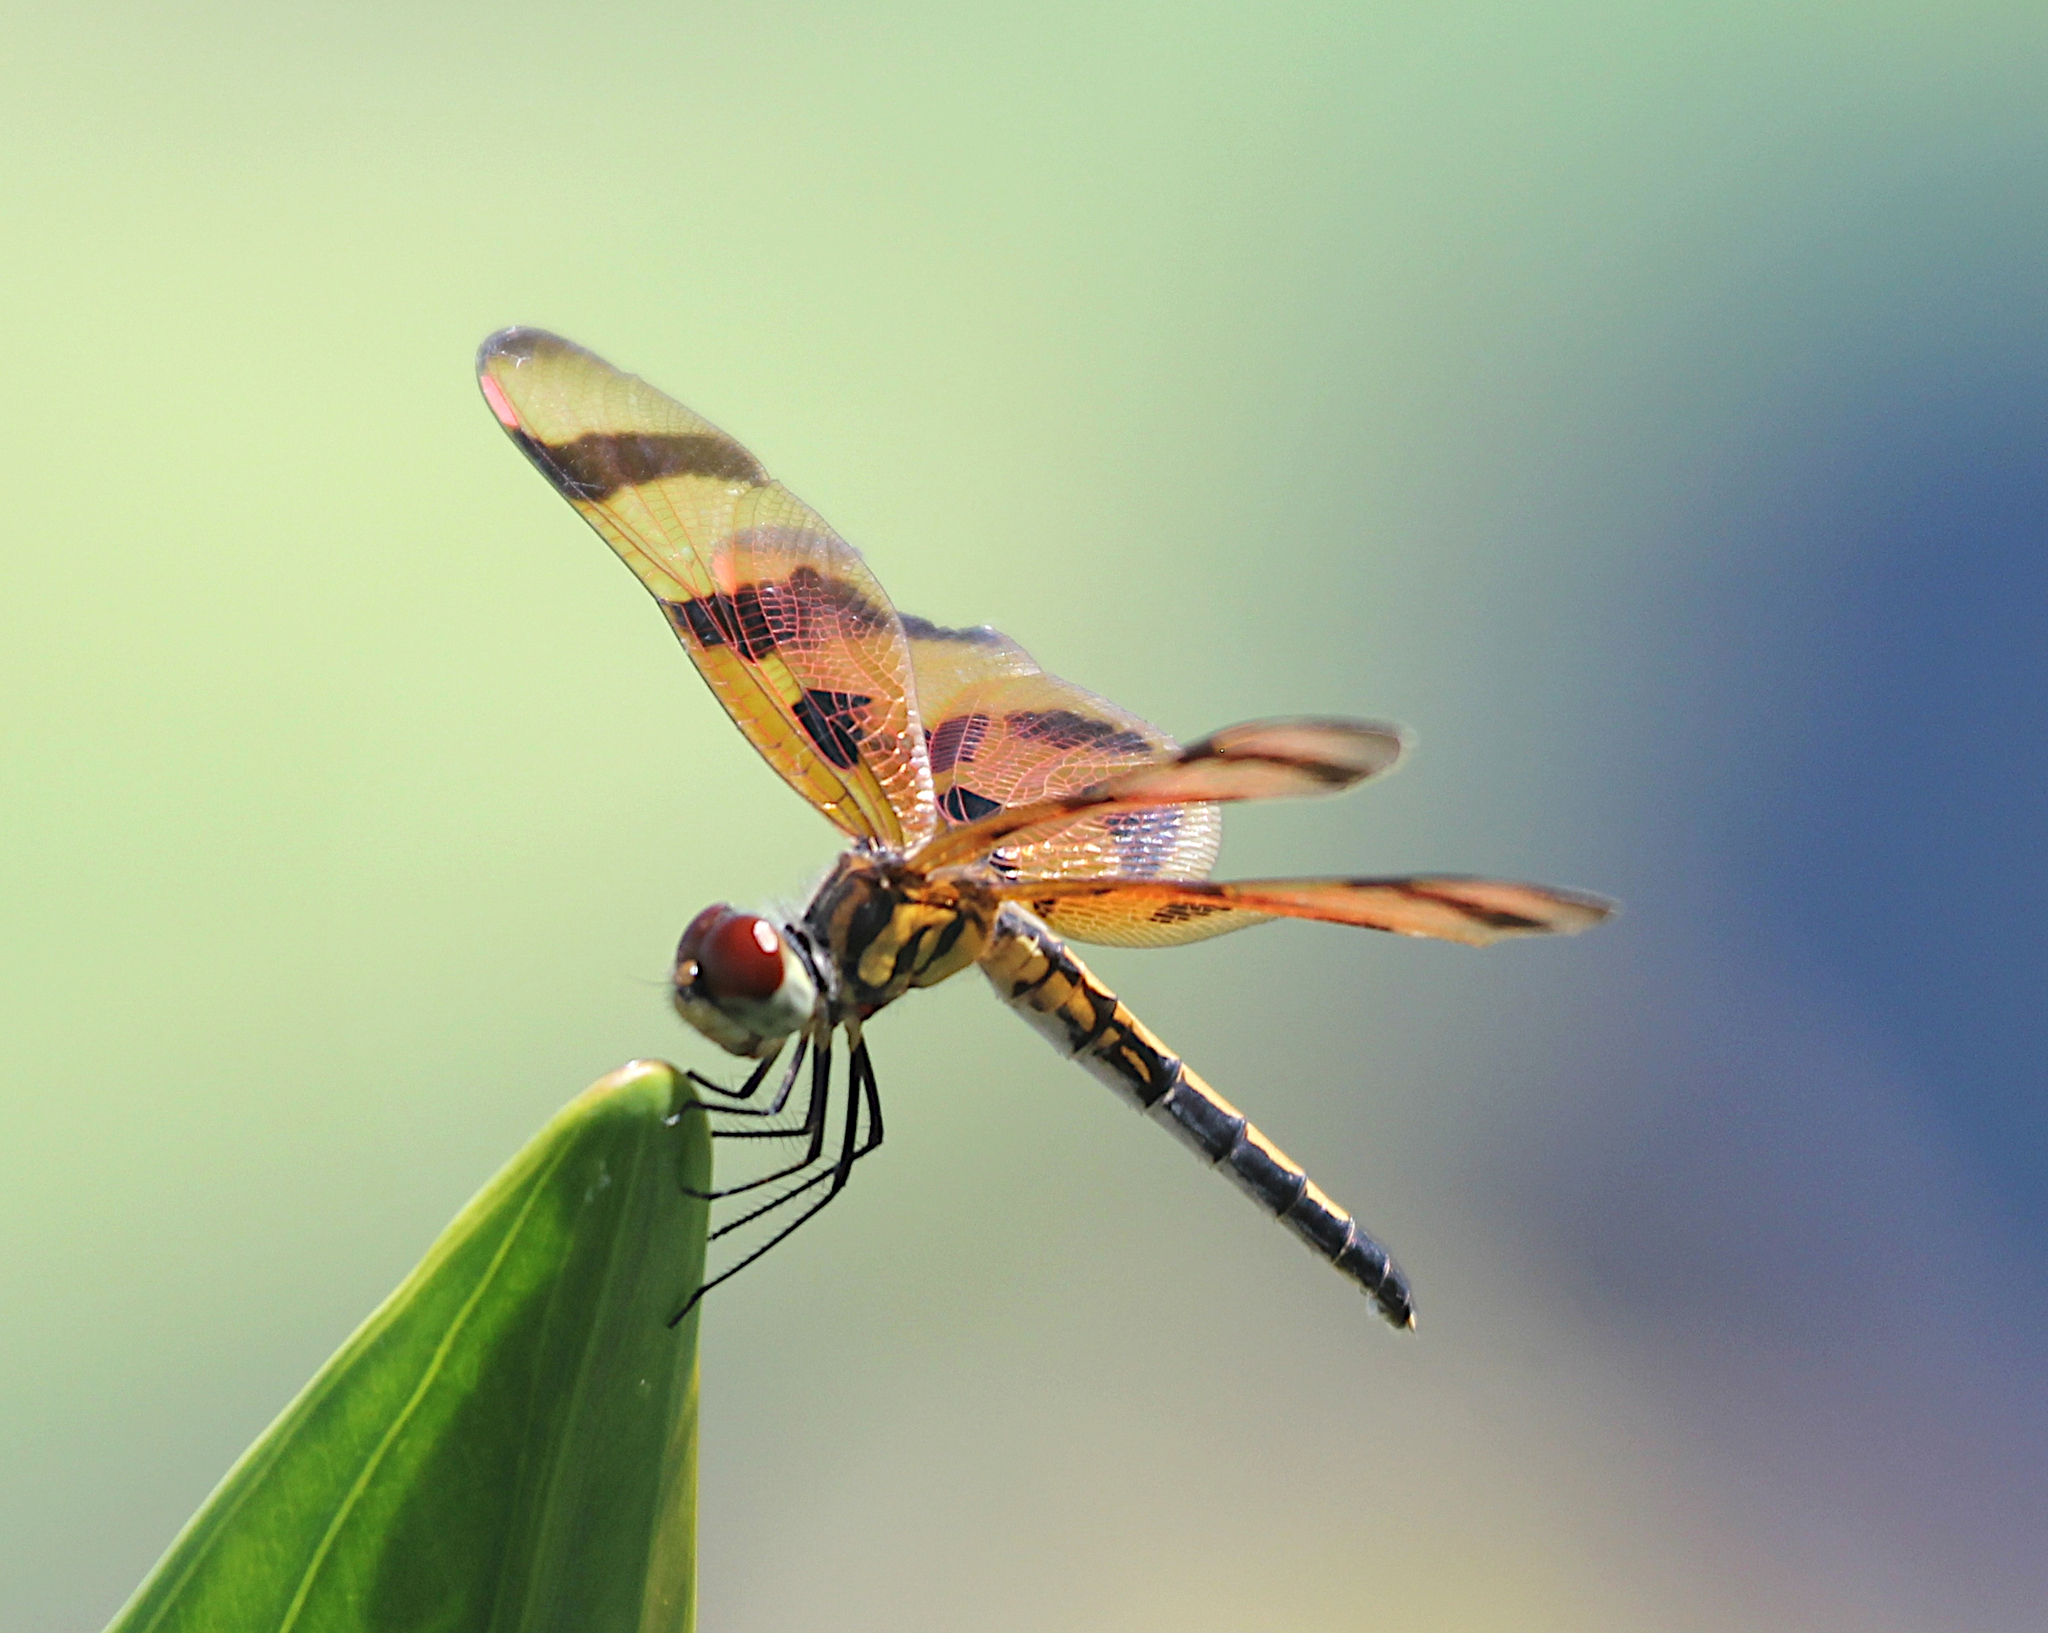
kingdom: Animalia
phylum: Arthropoda
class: Insecta
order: Odonata
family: Libellulidae
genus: Celithemis
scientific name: Celithemis eponina
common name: Halloween pennant
